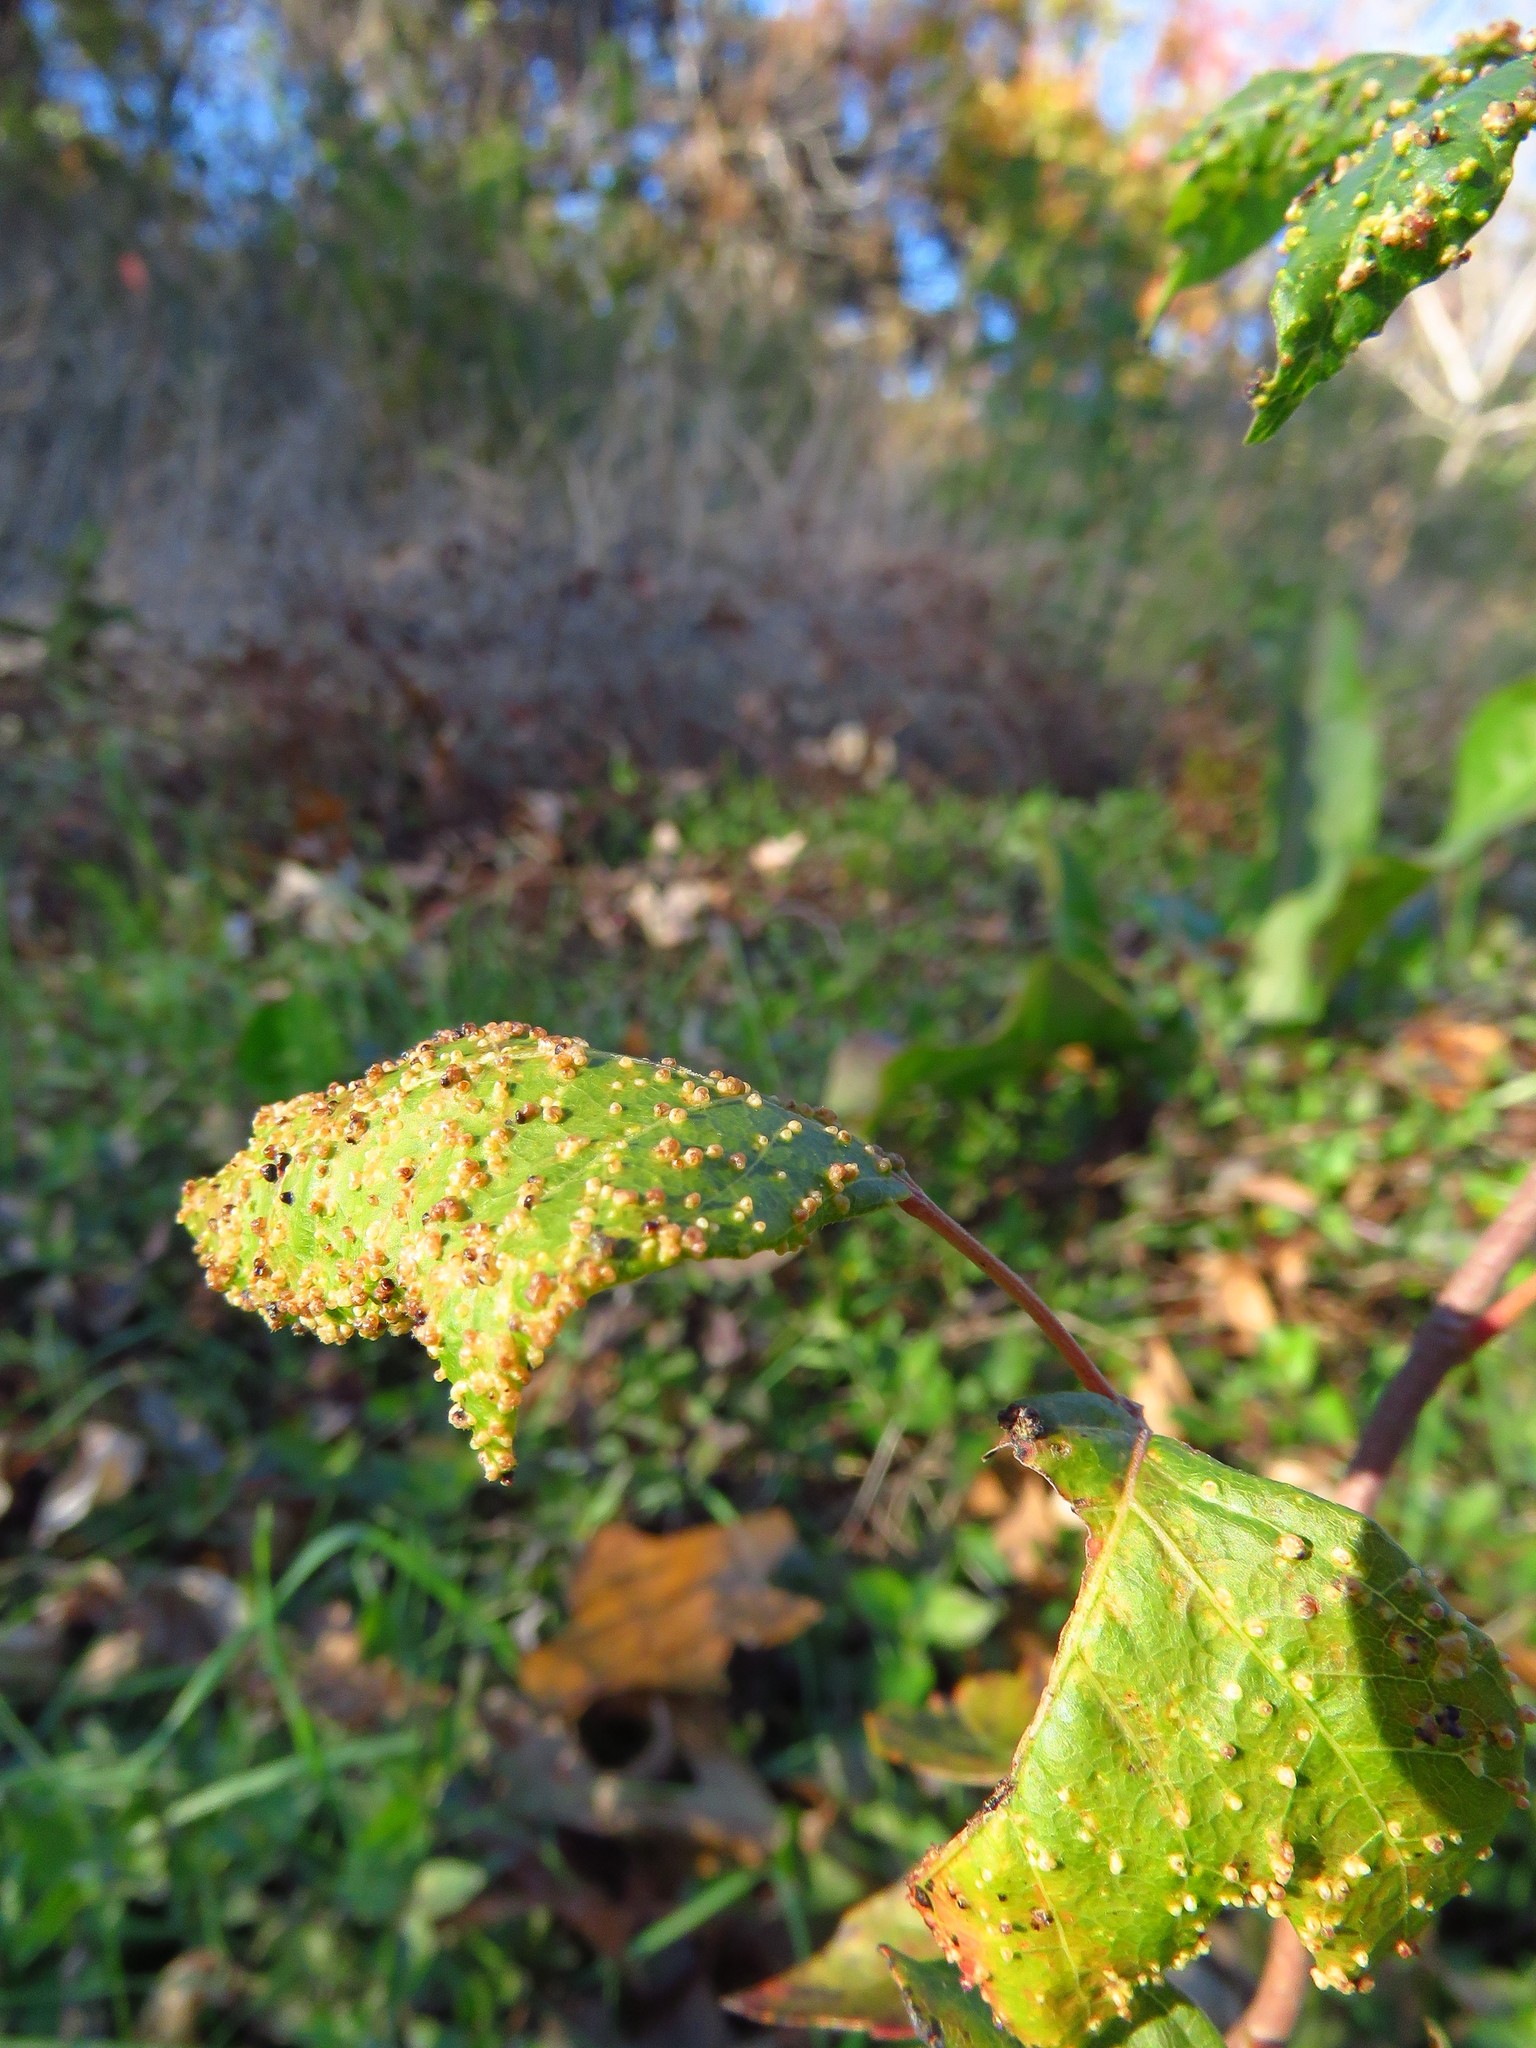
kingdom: Animalia
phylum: Arthropoda
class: Arachnida
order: Trombidiformes
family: Eriophyidae
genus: Aculops
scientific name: Aculops
